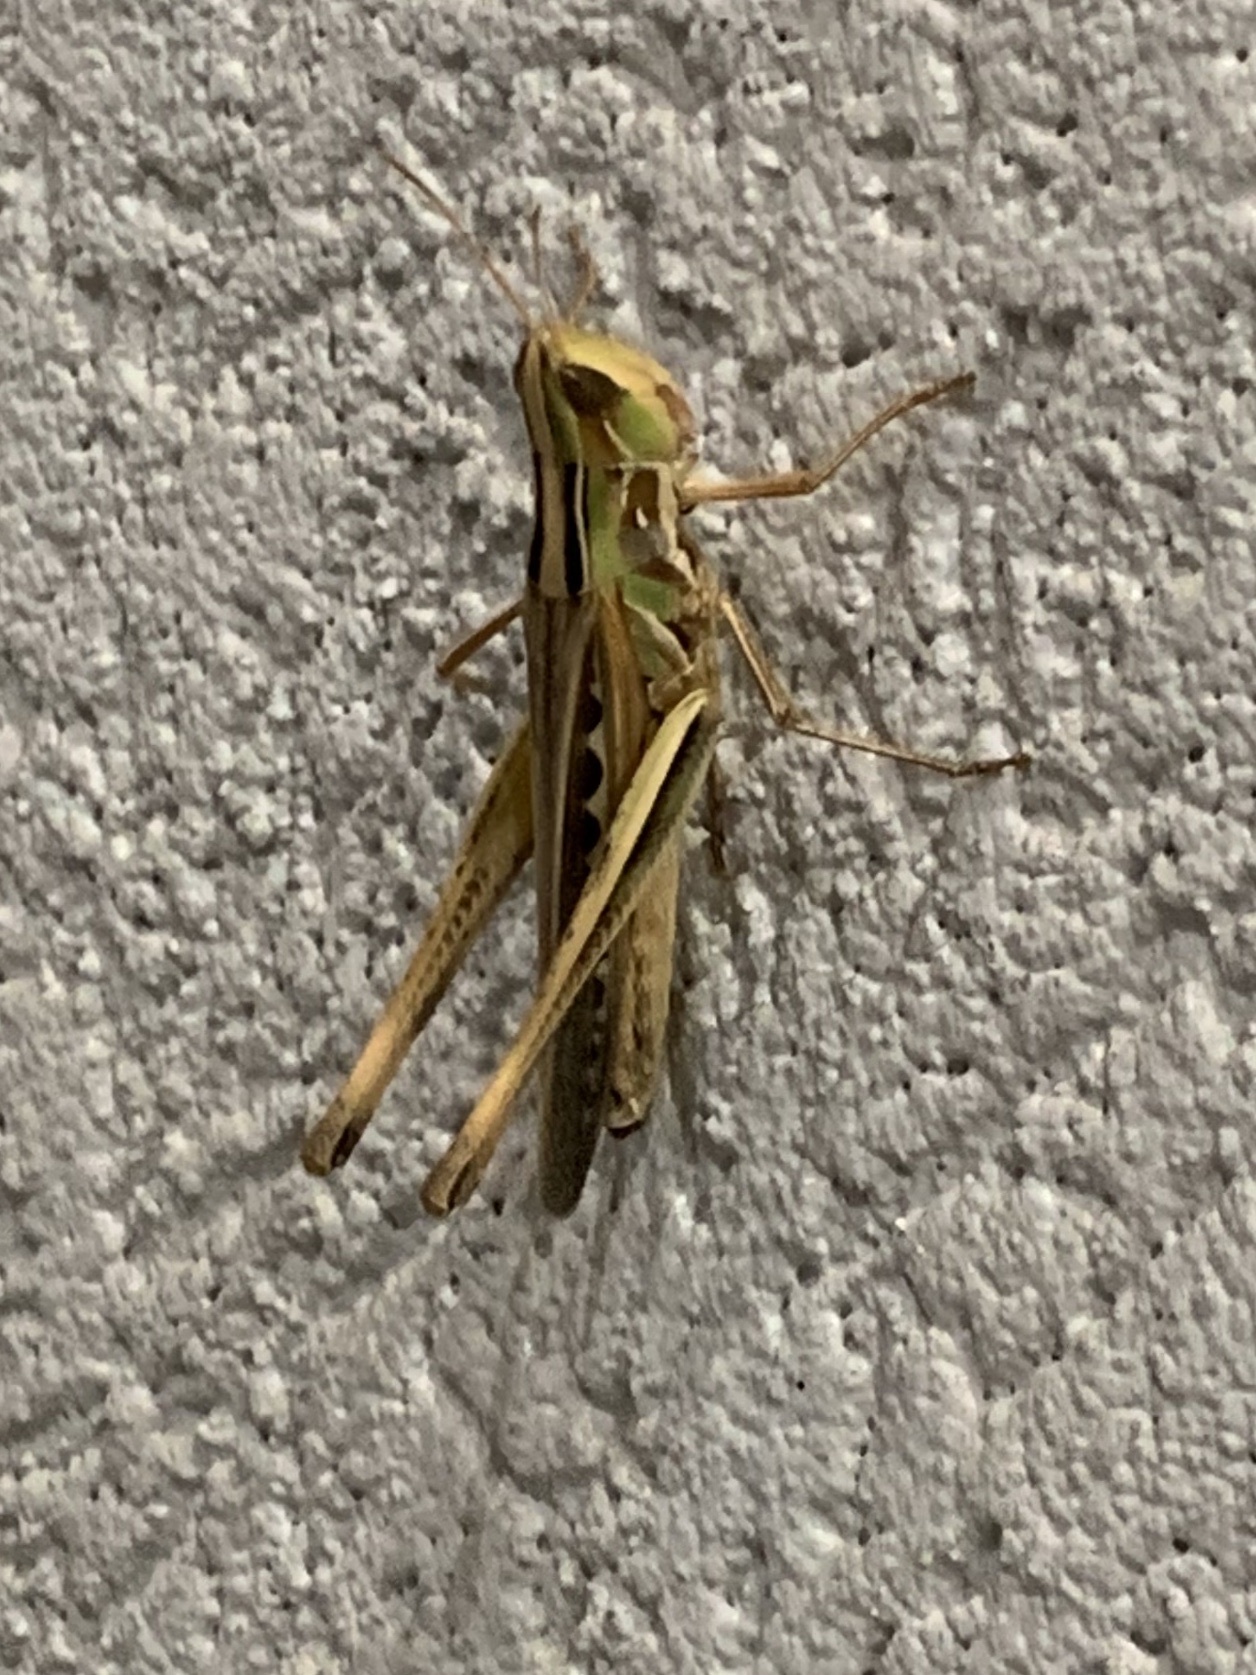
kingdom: Animalia
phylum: Arthropoda
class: Insecta
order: Orthoptera
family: Acrididae
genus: Syrbula
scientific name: Syrbula admirabilis
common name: Handsome grasshopper
